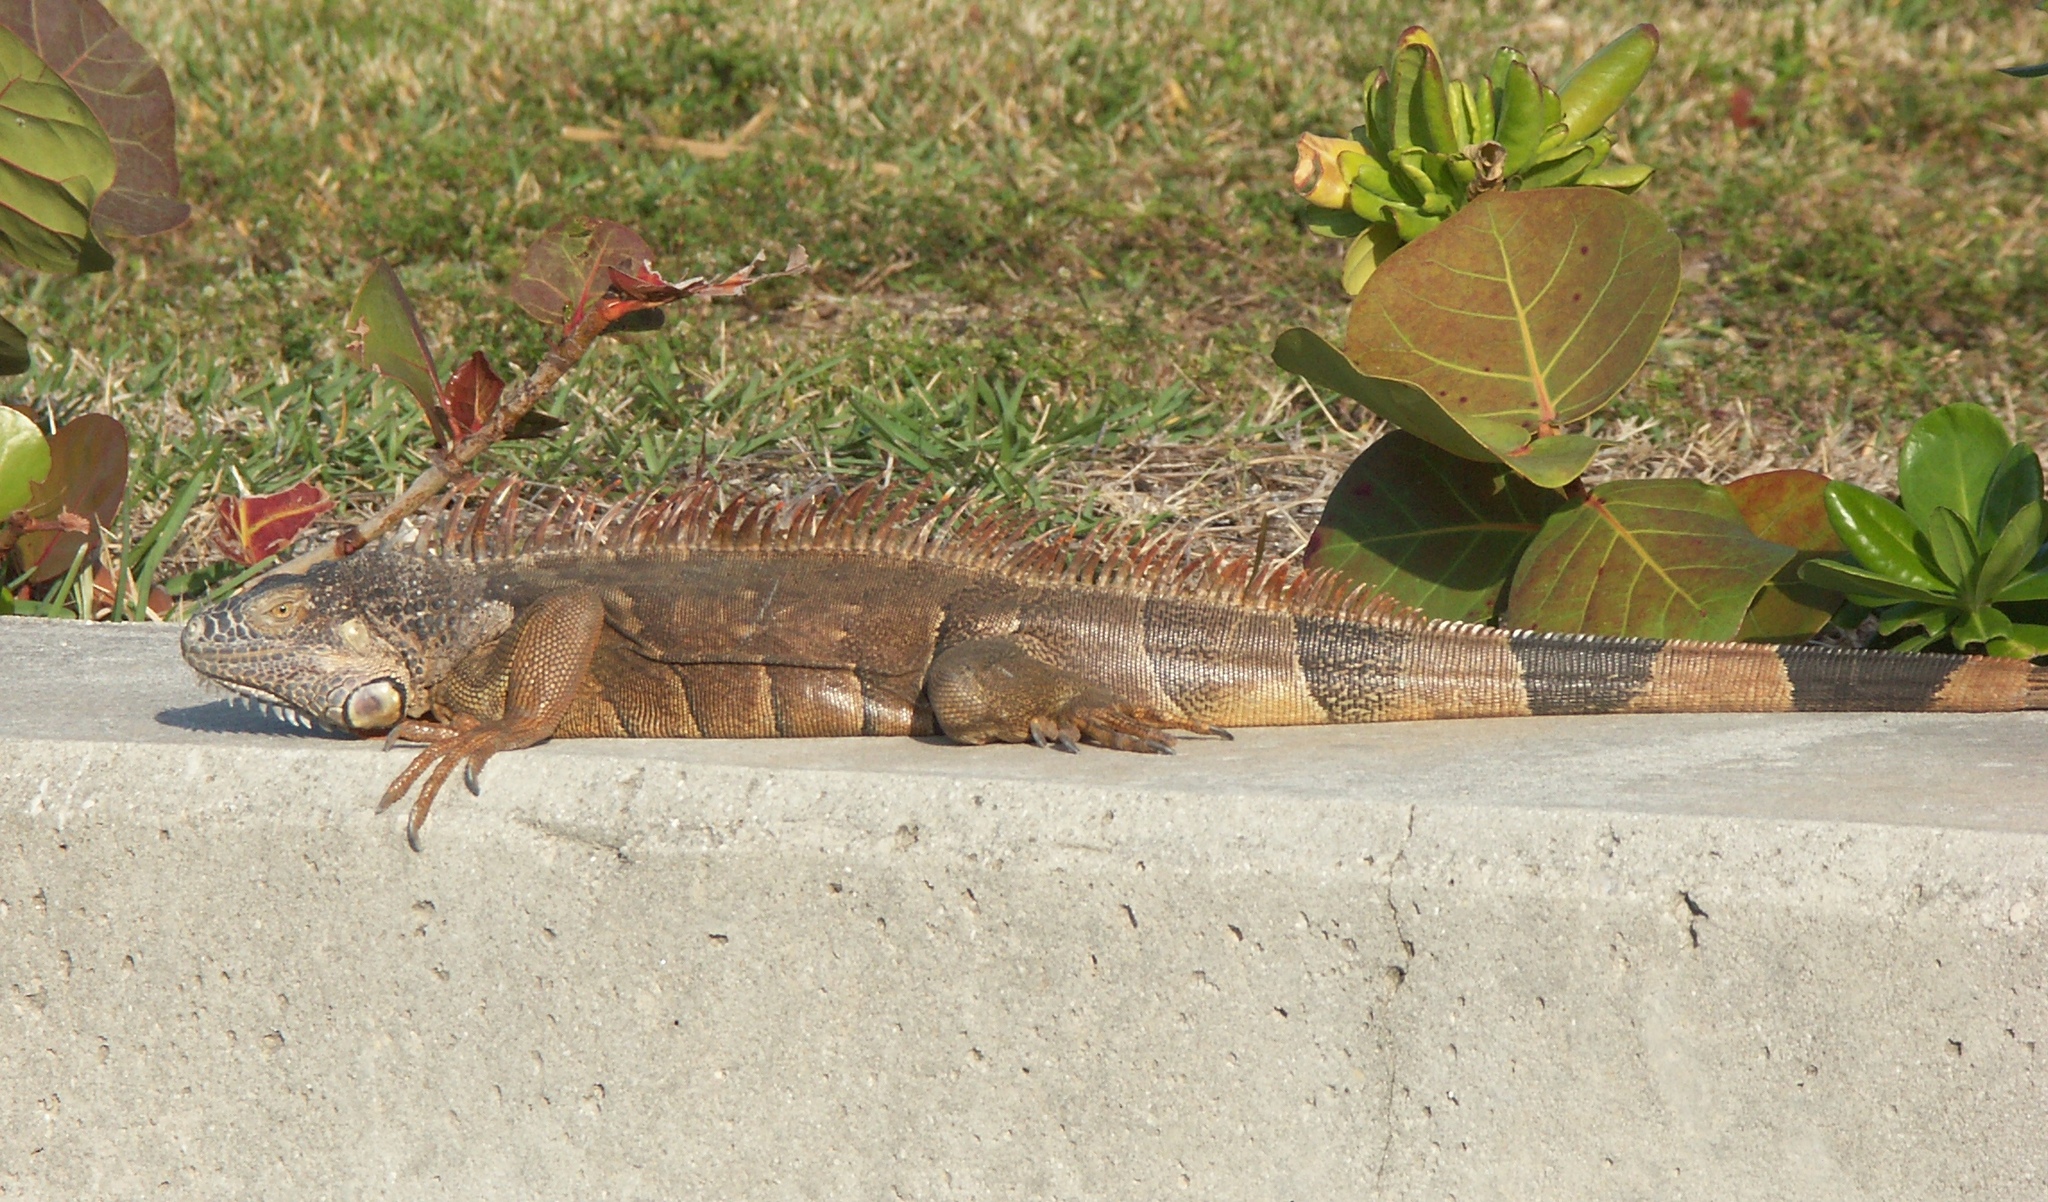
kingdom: Animalia
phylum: Chordata
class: Squamata
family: Iguanidae
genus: Iguana
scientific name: Iguana iguana
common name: Green iguana
